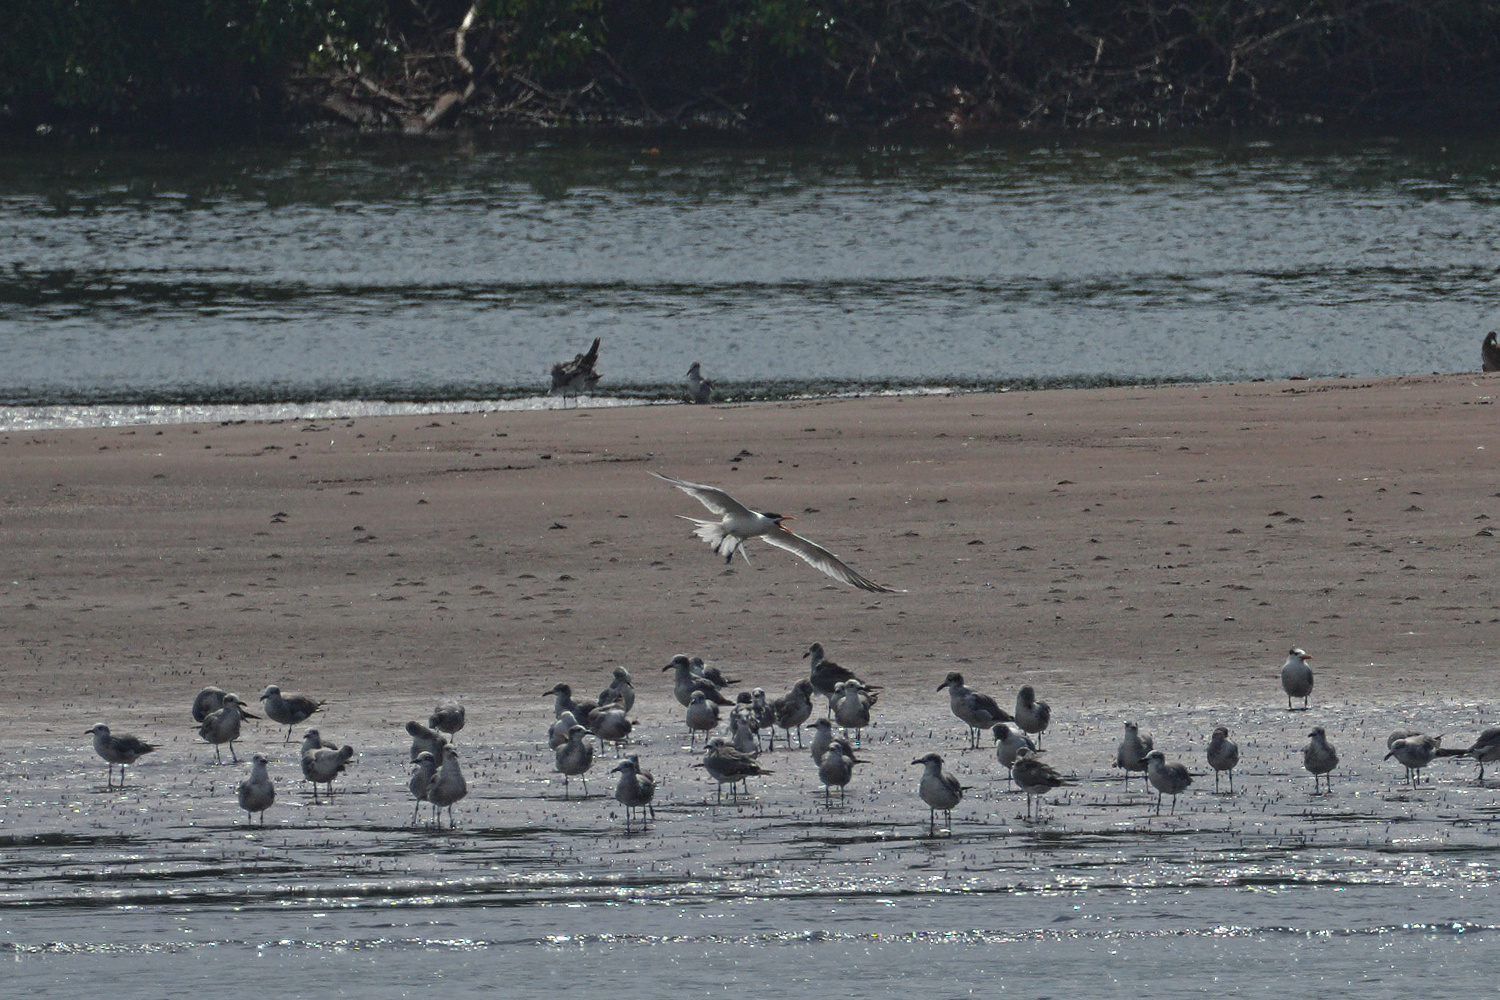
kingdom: Animalia
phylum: Chordata
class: Aves
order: Charadriiformes
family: Laridae
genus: Thalasseus
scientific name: Thalasseus maximus
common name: Royal tern
